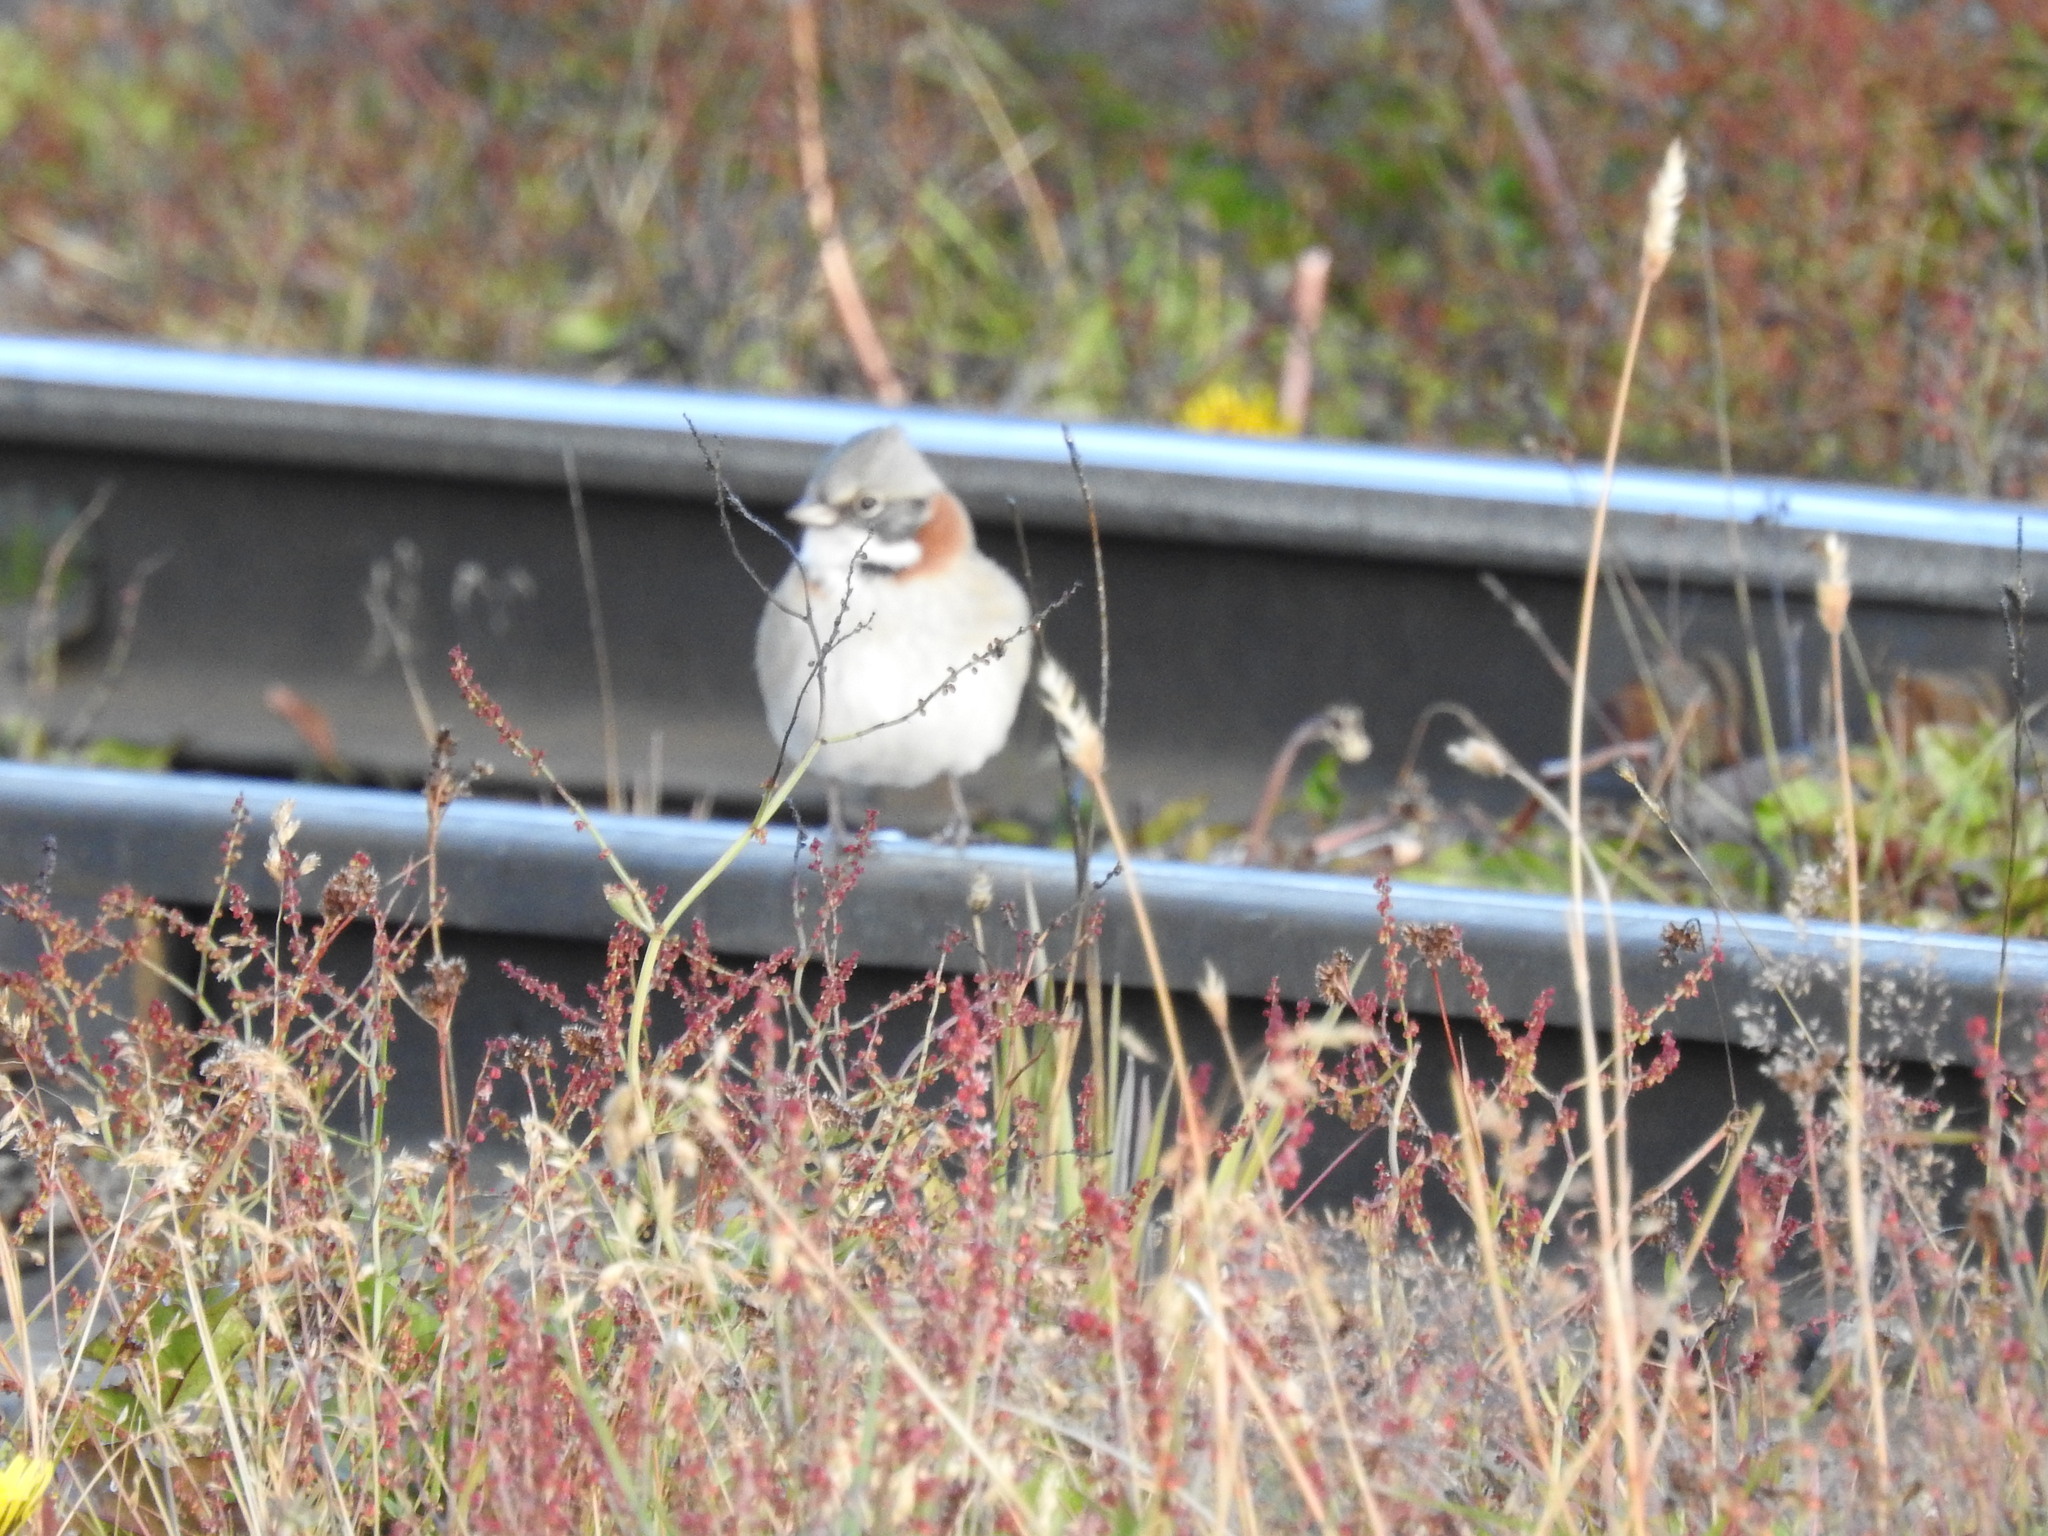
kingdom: Animalia
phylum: Chordata
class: Aves
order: Passeriformes
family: Passerellidae
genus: Zonotrichia
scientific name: Zonotrichia capensis
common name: Rufous-collared sparrow
